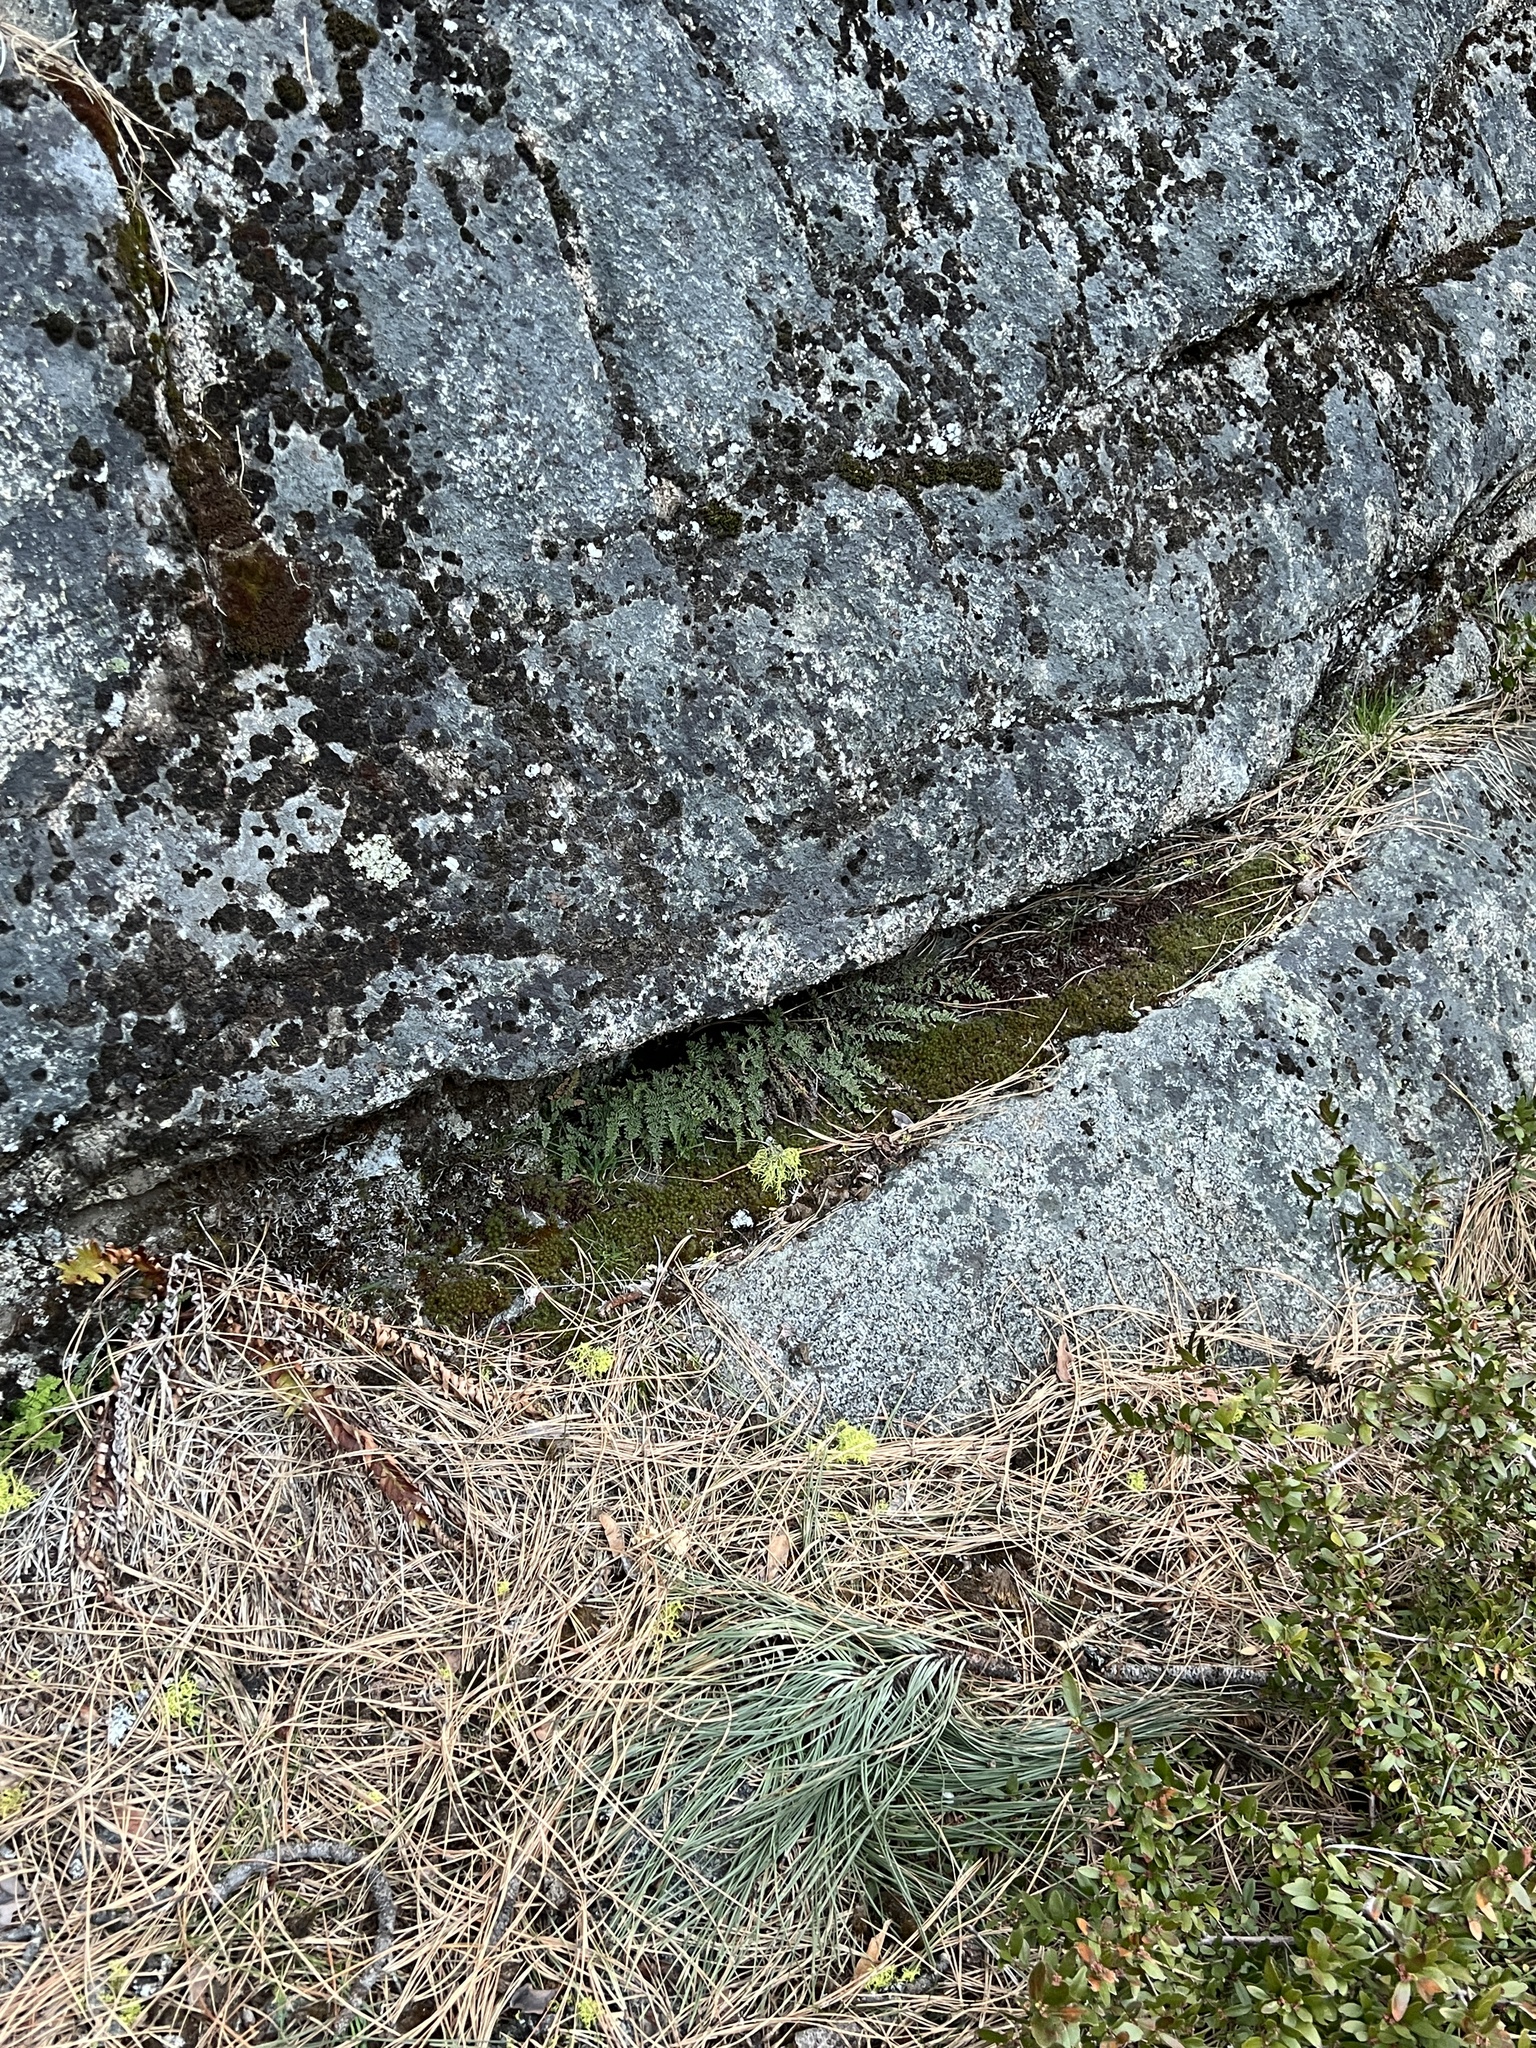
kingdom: Plantae
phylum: Tracheophyta
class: Polypodiopsida
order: Polypodiales
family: Pteridaceae
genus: Myriopteris
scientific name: Myriopteris gracillima
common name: Lace fern
